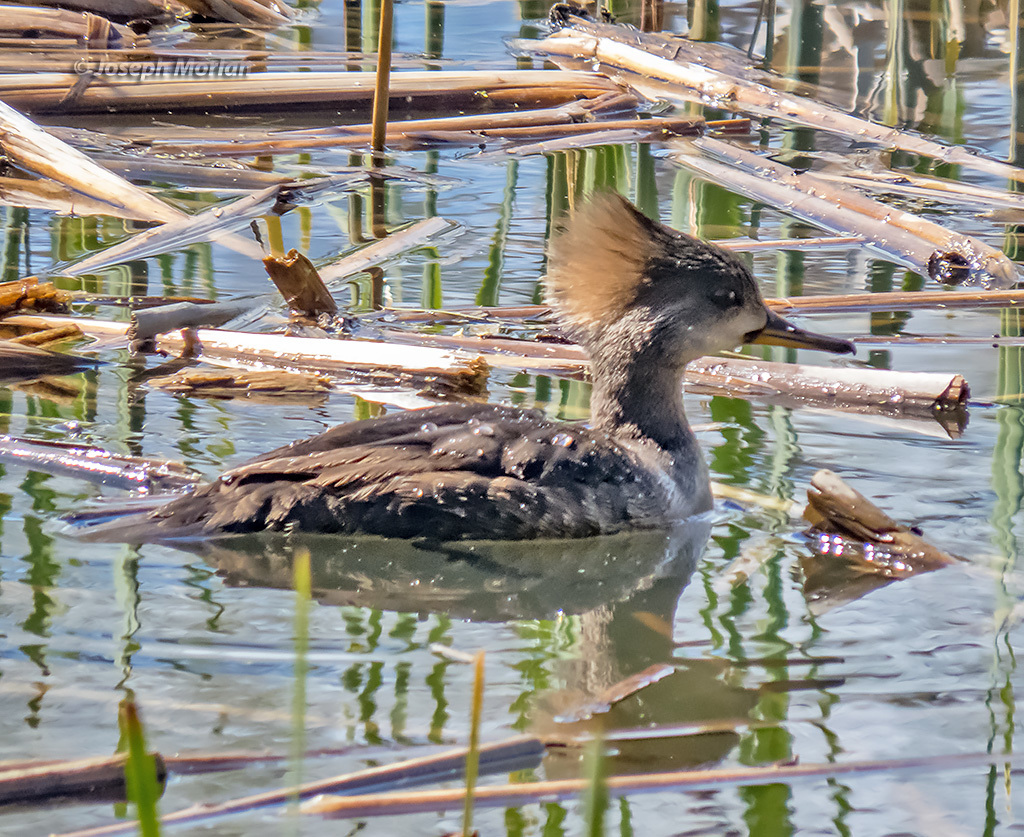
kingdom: Animalia
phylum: Chordata
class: Aves
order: Anseriformes
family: Anatidae
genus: Lophodytes
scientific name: Lophodytes cucullatus
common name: Hooded merganser
